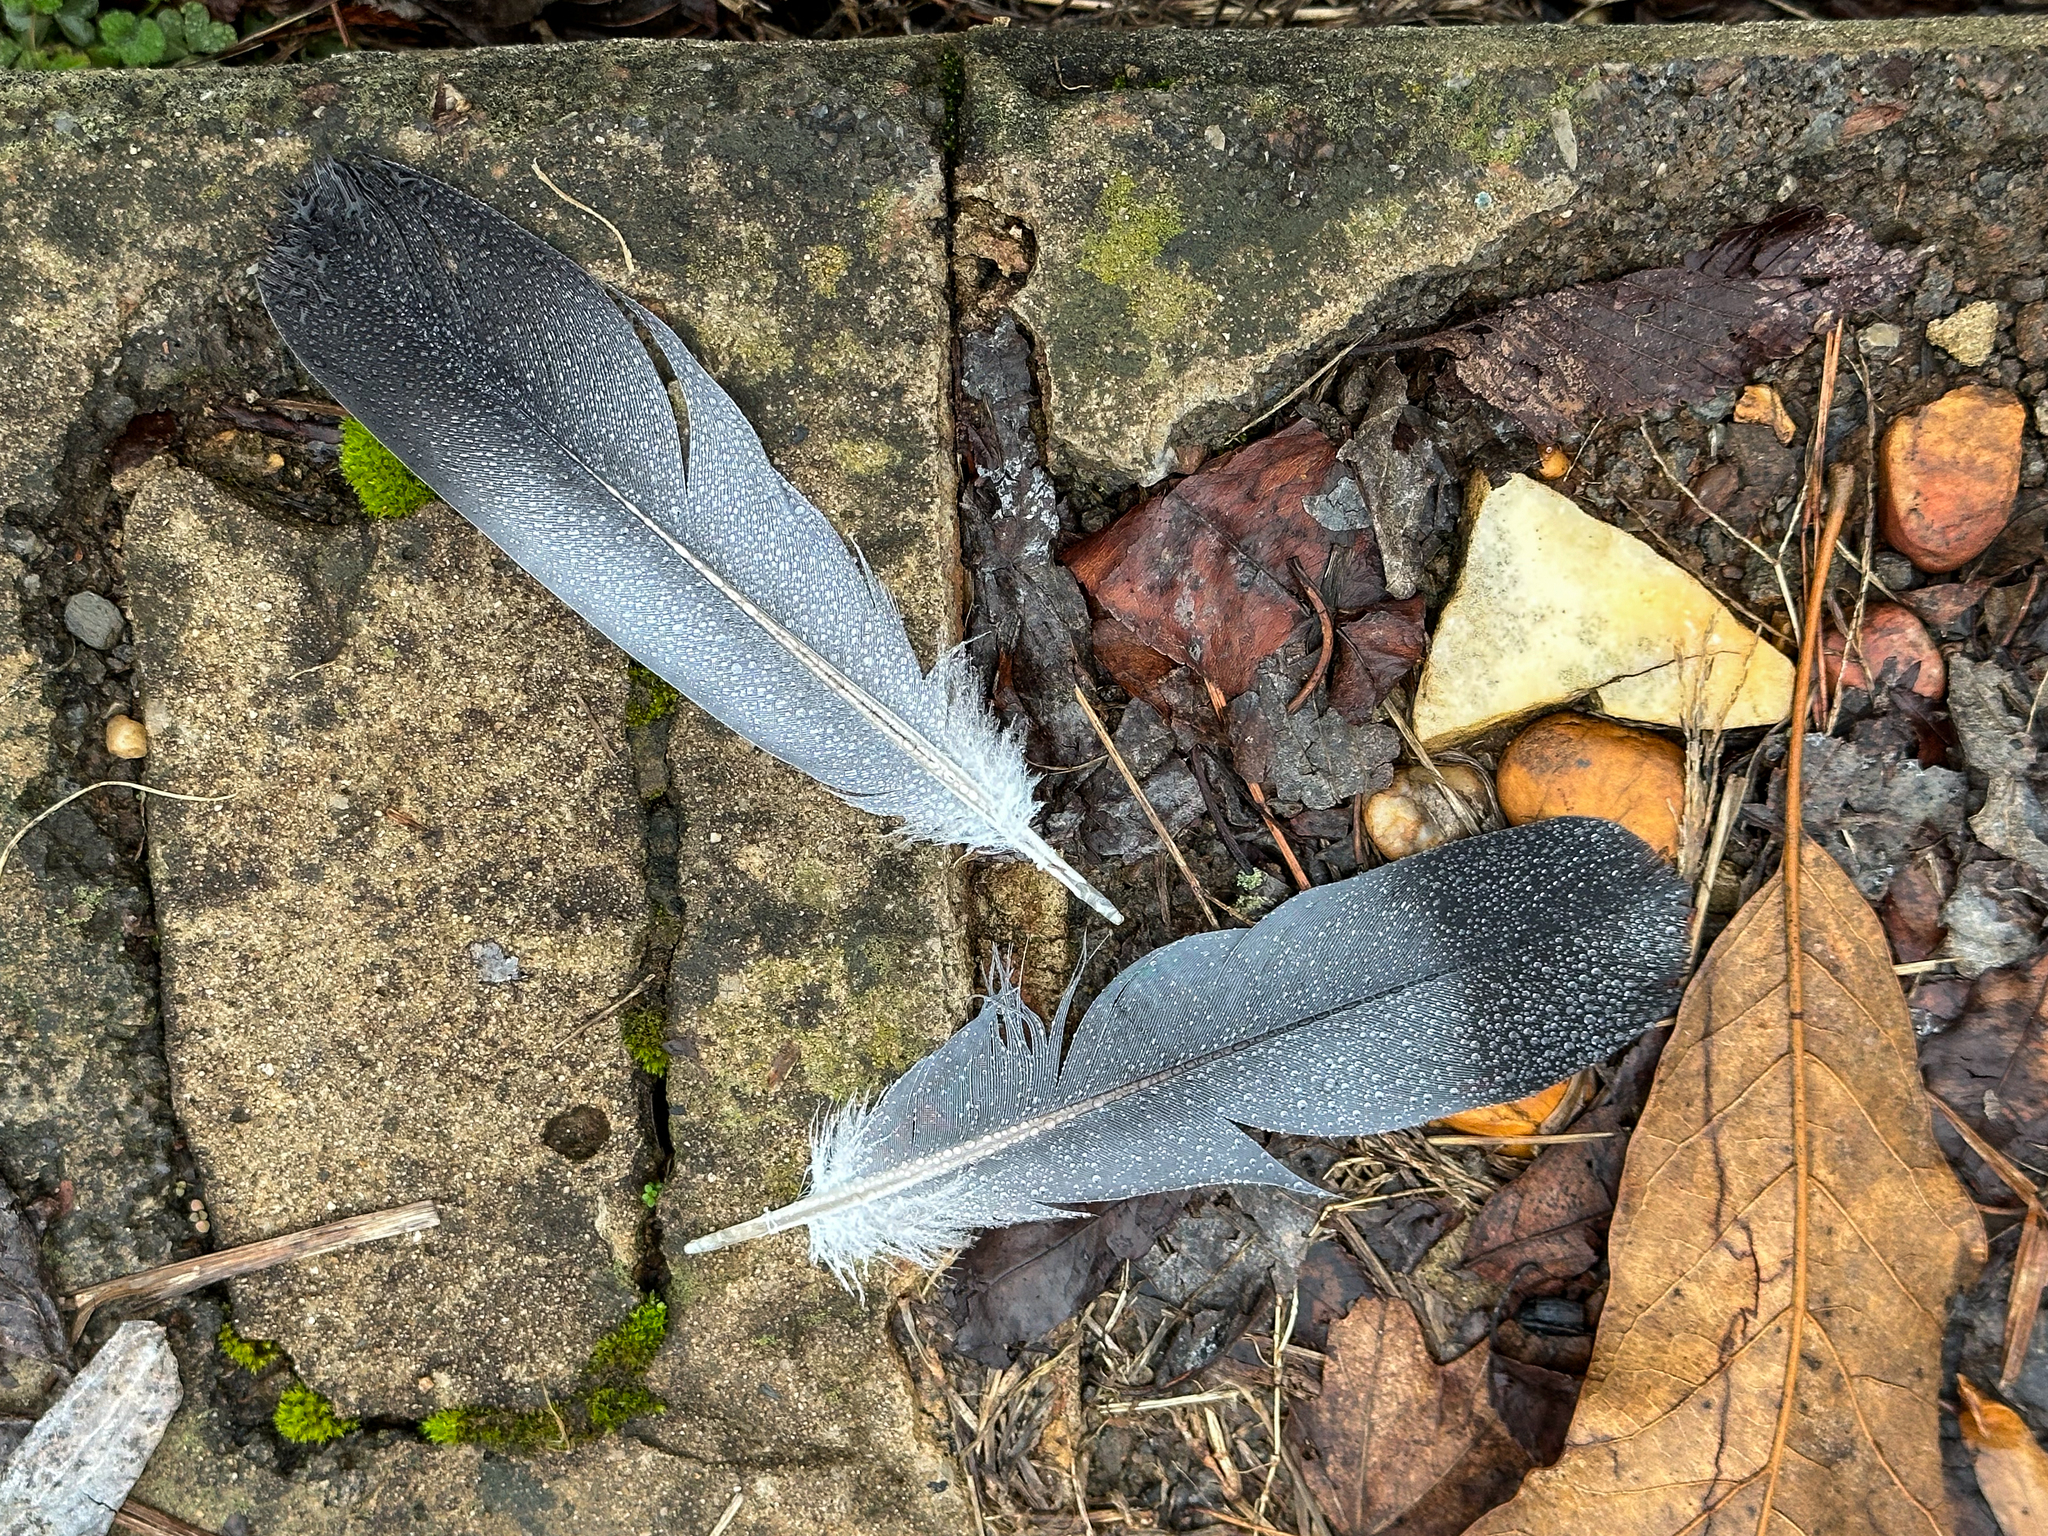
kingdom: Animalia
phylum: Chordata
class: Aves
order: Columbiformes
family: Columbidae
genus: Columba
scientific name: Columba livia
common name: Rock pigeon
